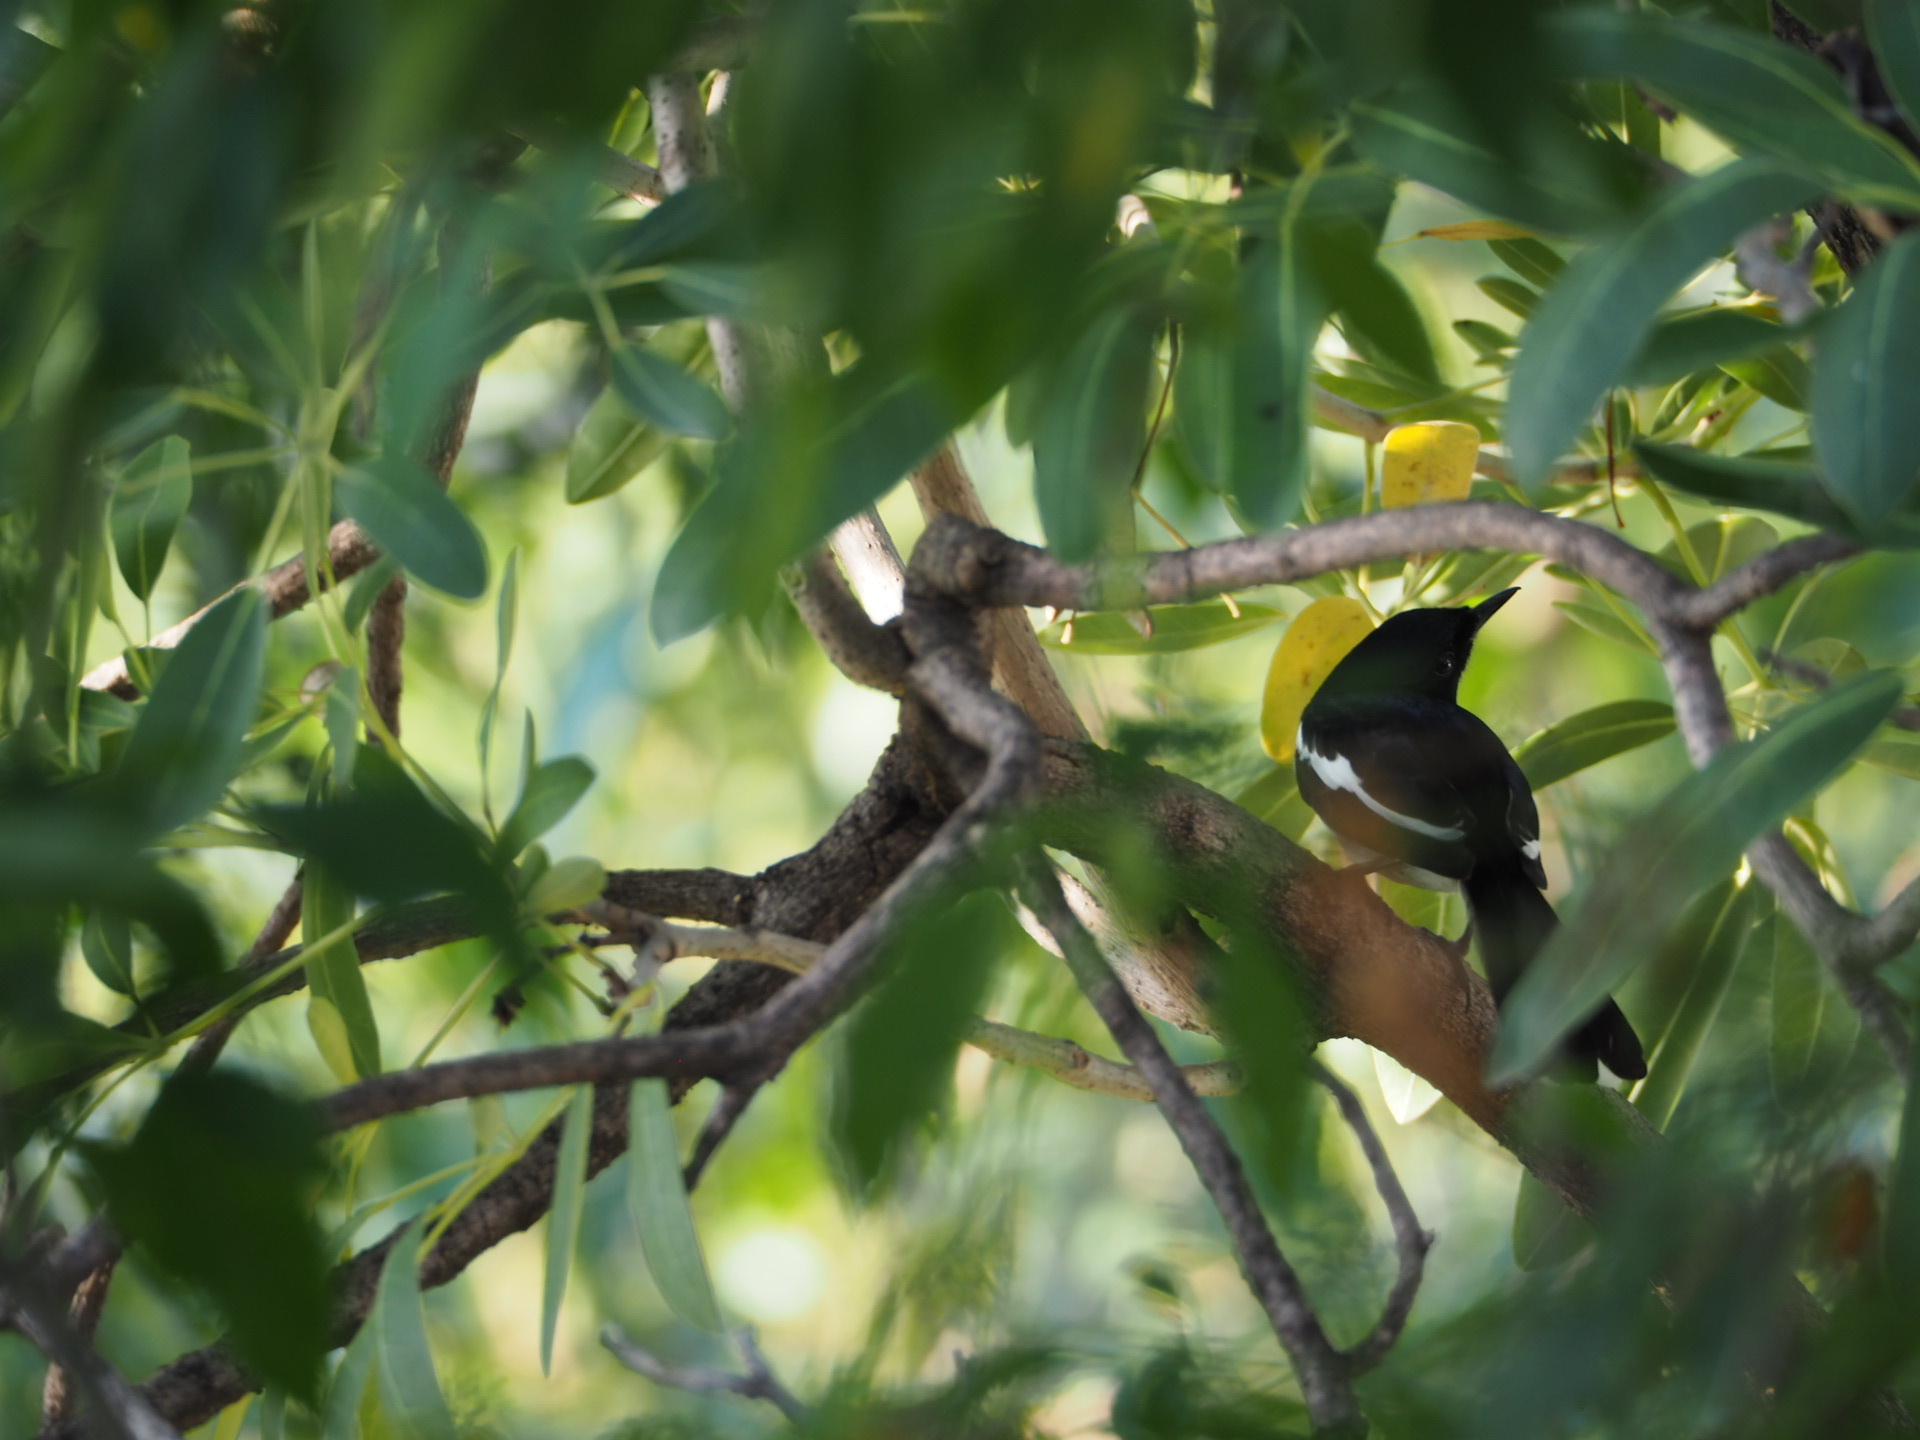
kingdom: Animalia
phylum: Chordata
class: Aves
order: Passeriformes
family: Muscicapidae
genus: Copsychus
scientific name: Copsychus saularis
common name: Oriental magpie-robin
